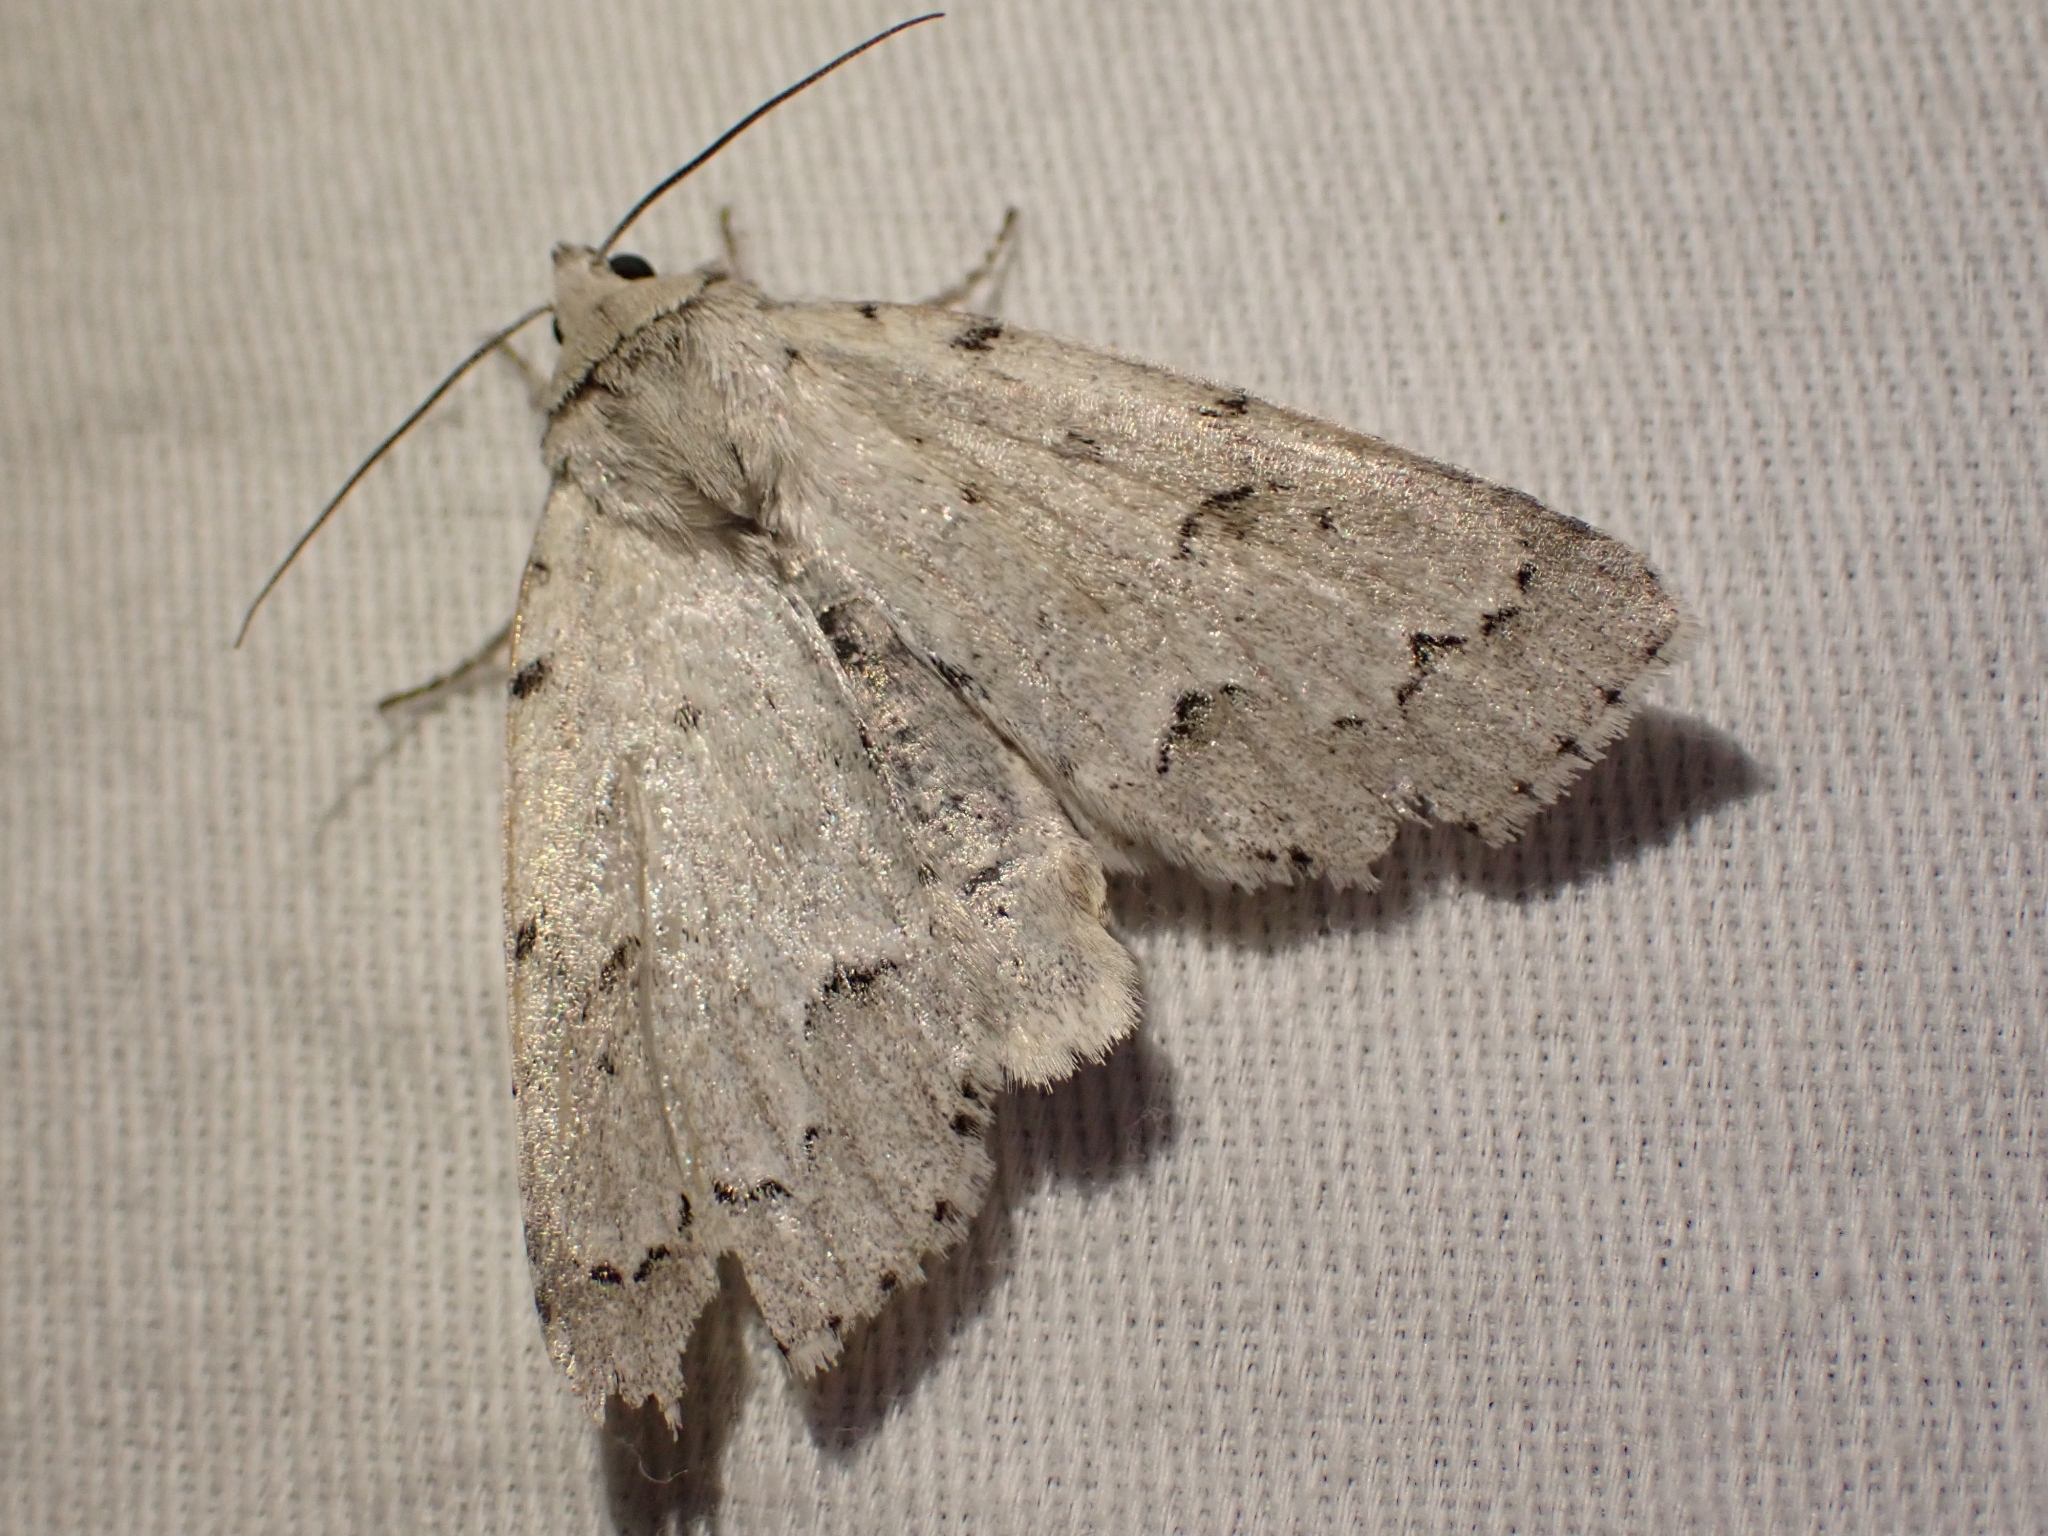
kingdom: Animalia
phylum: Arthropoda
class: Insecta
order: Lepidoptera
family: Noctuidae
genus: Acronicta
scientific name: Acronicta innotata
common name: Unmarked dagger
